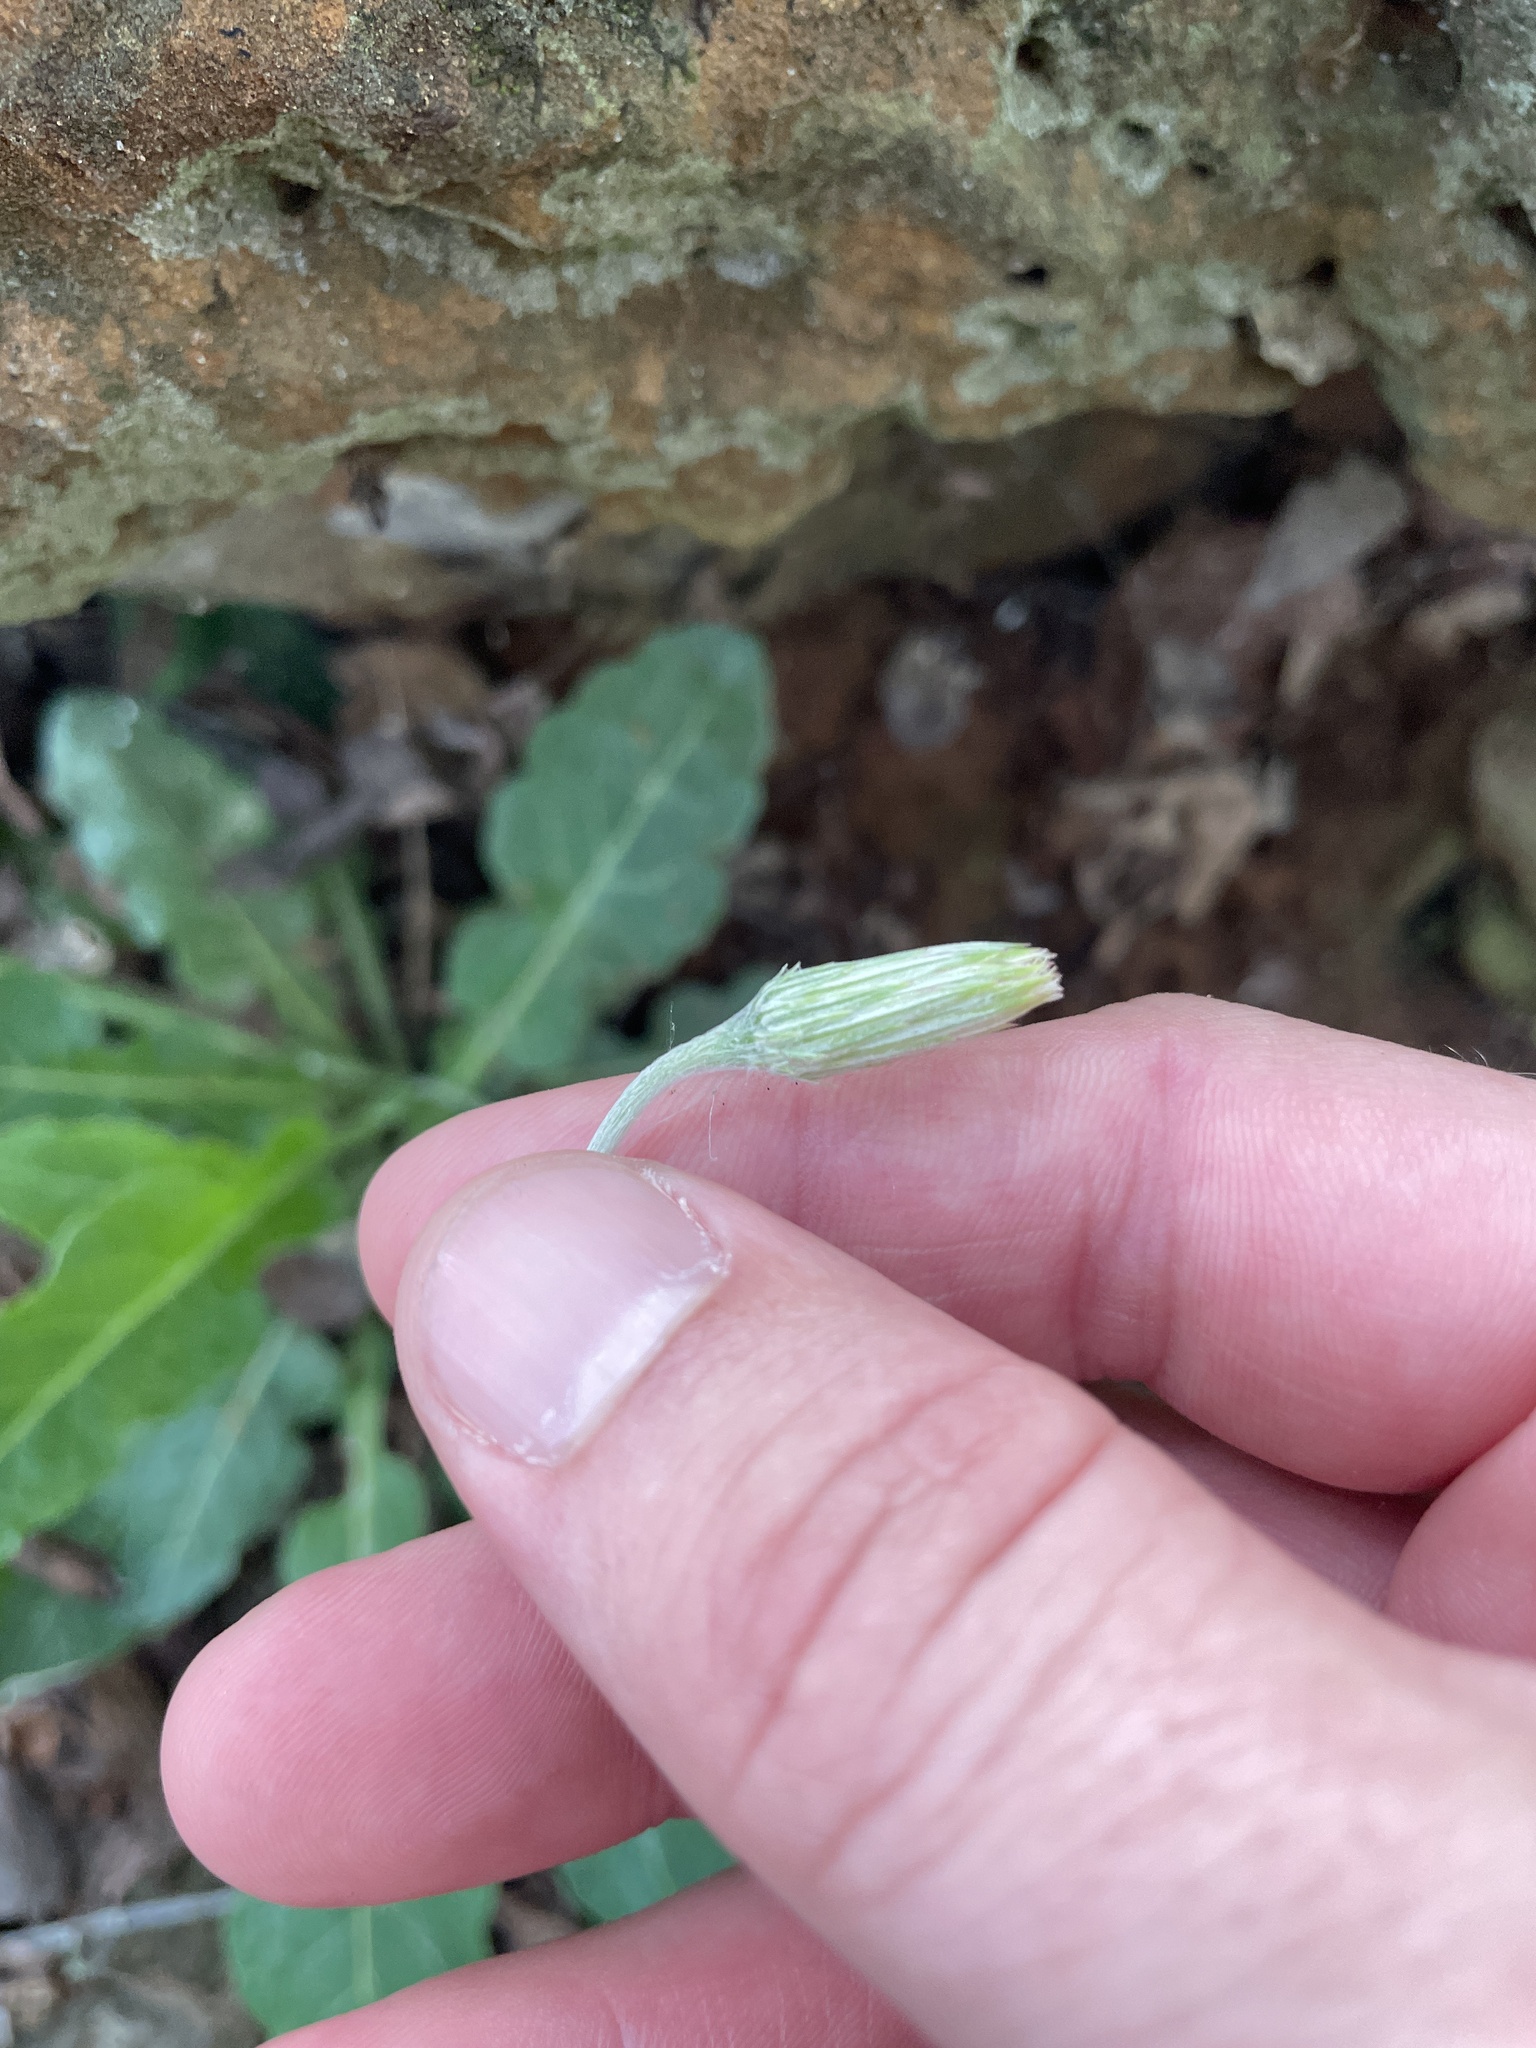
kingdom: Plantae
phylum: Tracheophyta
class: Magnoliopsida
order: Asterales
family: Asteraceae
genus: Chaptalia
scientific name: Chaptalia texana
